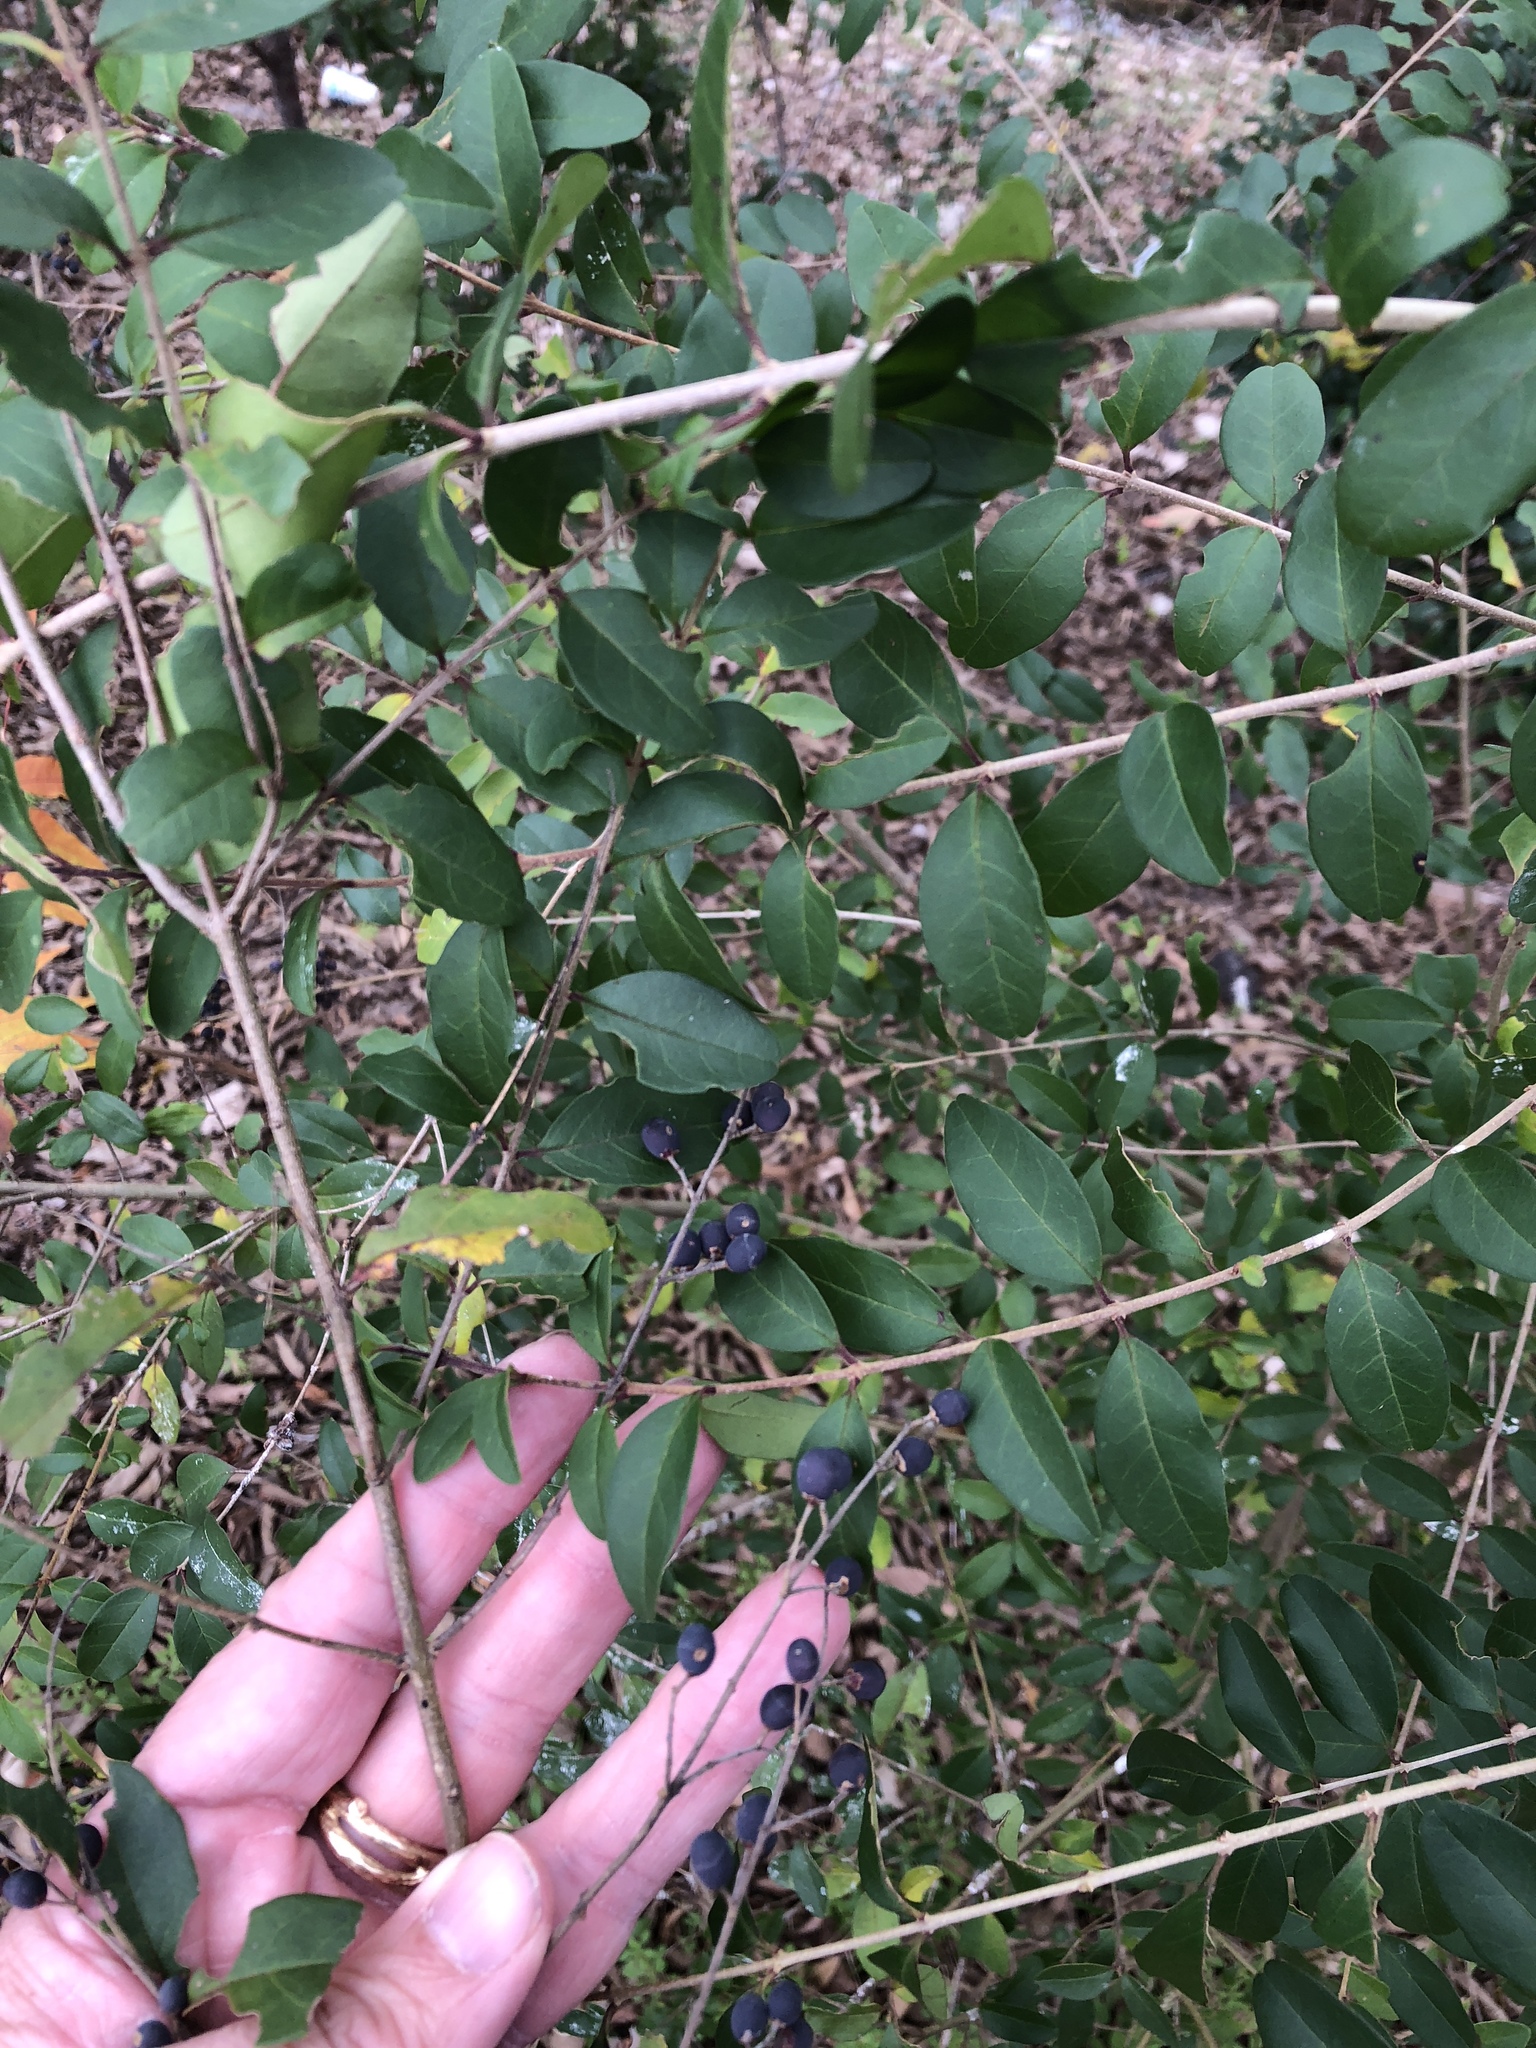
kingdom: Plantae
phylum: Tracheophyta
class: Magnoliopsida
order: Lamiales
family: Oleaceae
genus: Ligustrum
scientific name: Ligustrum sinense
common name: Chinese privet
